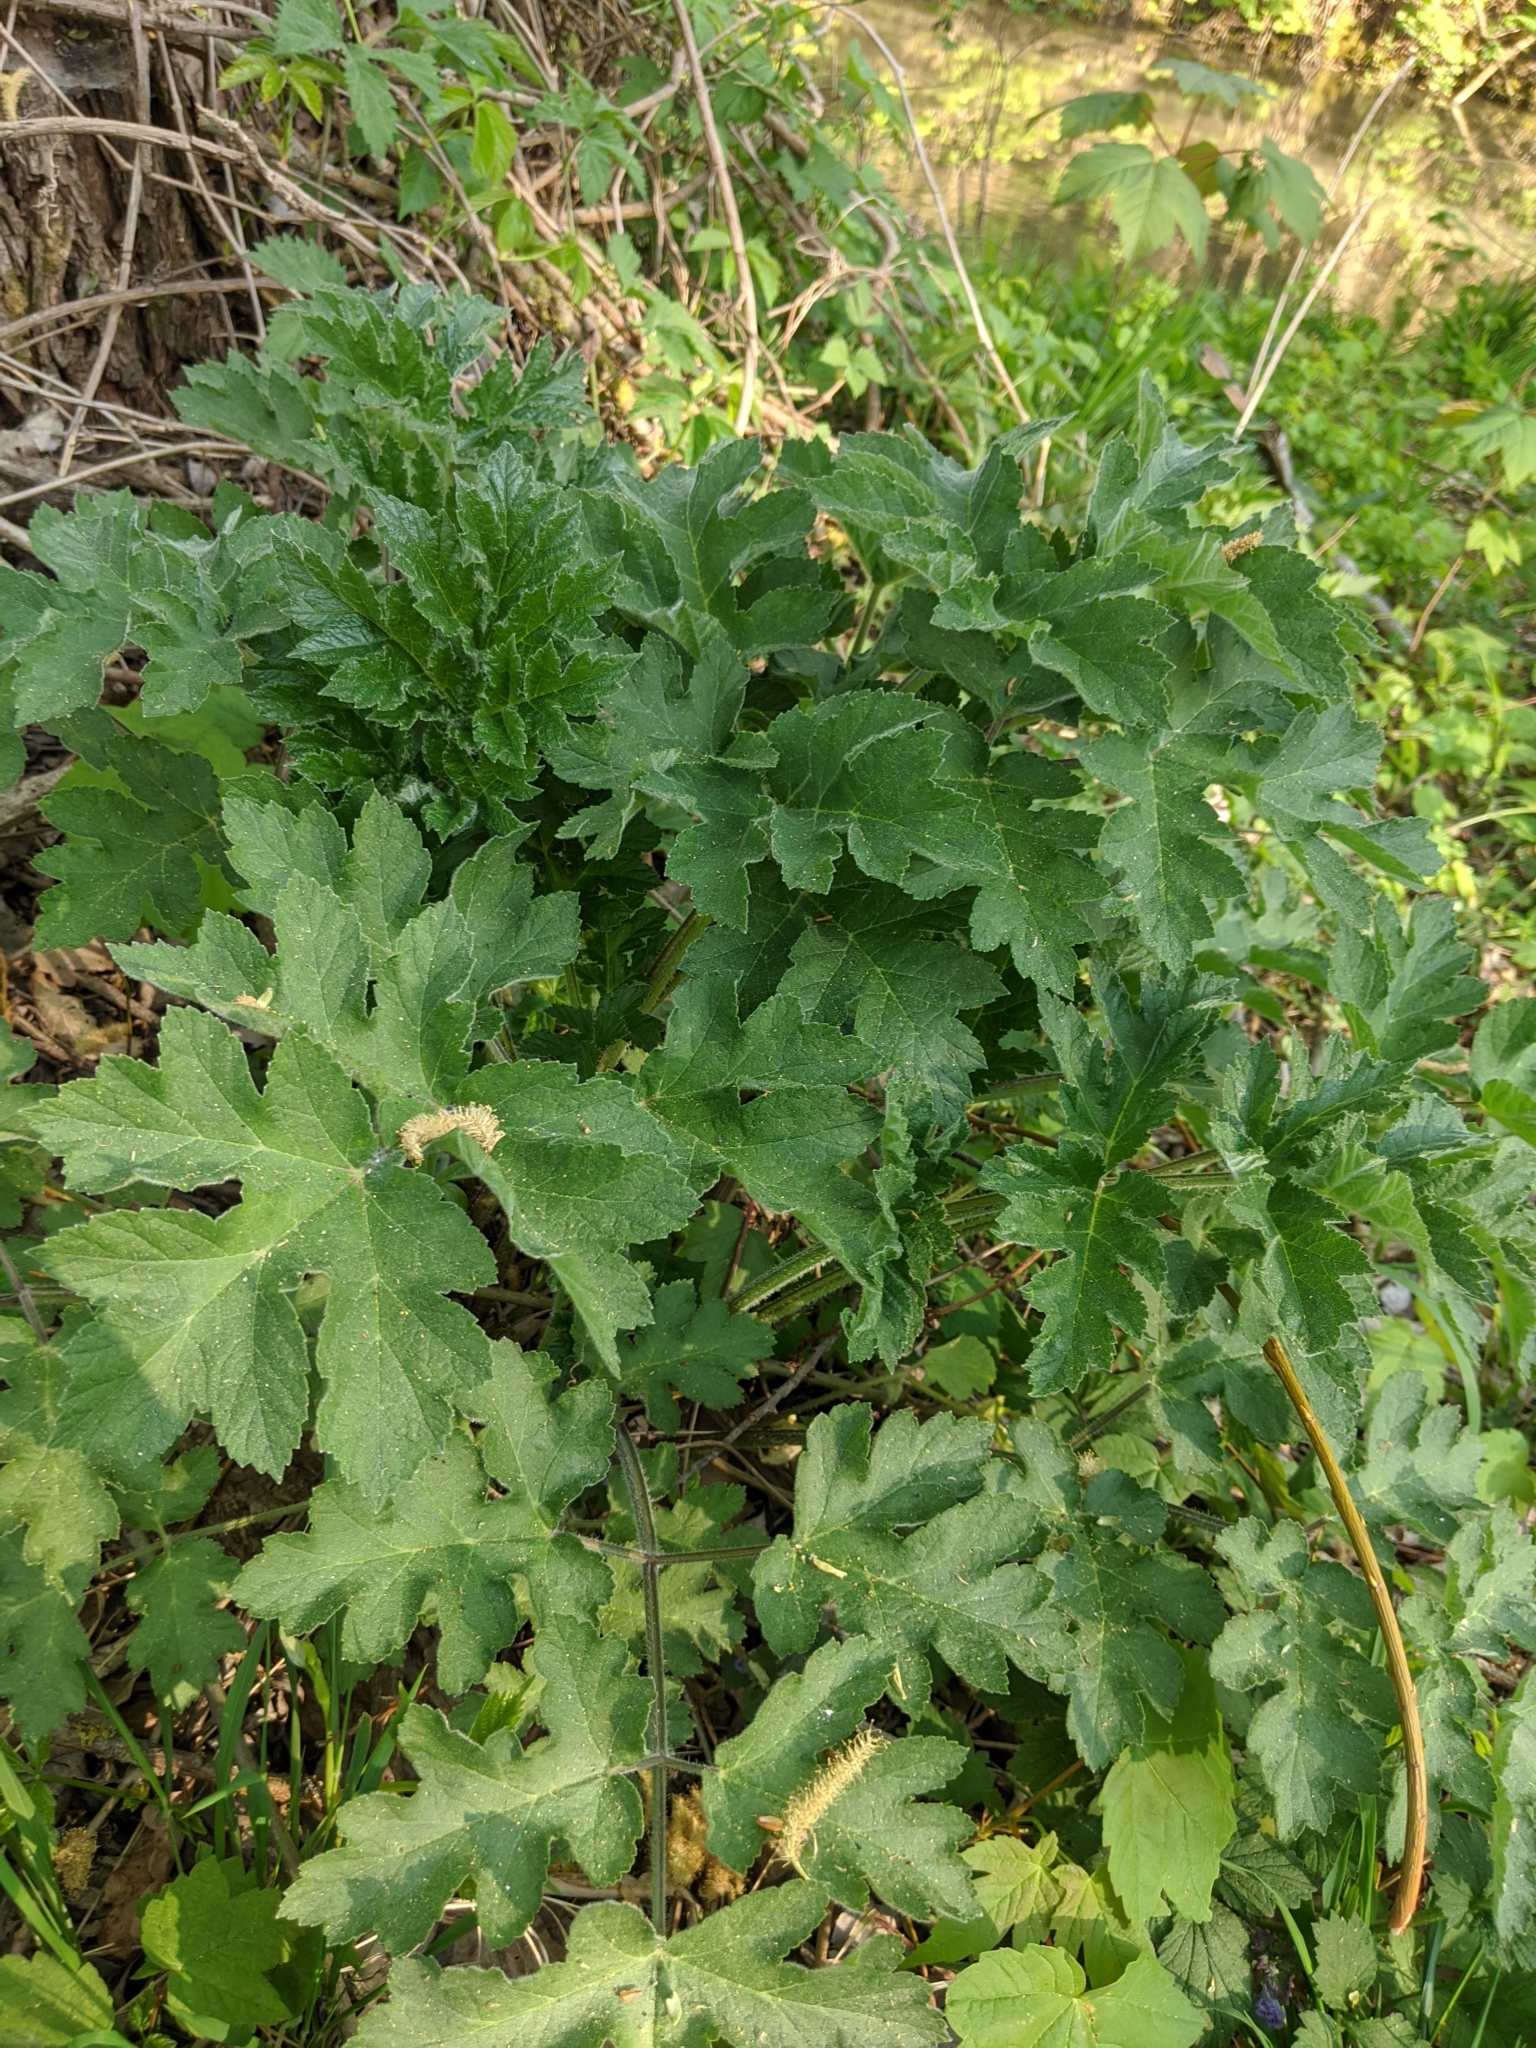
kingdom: Plantae
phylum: Tracheophyta
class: Magnoliopsida
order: Apiales
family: Apiaceae
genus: Heracleum
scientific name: Heracleum sphondylium
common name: Hogweed
